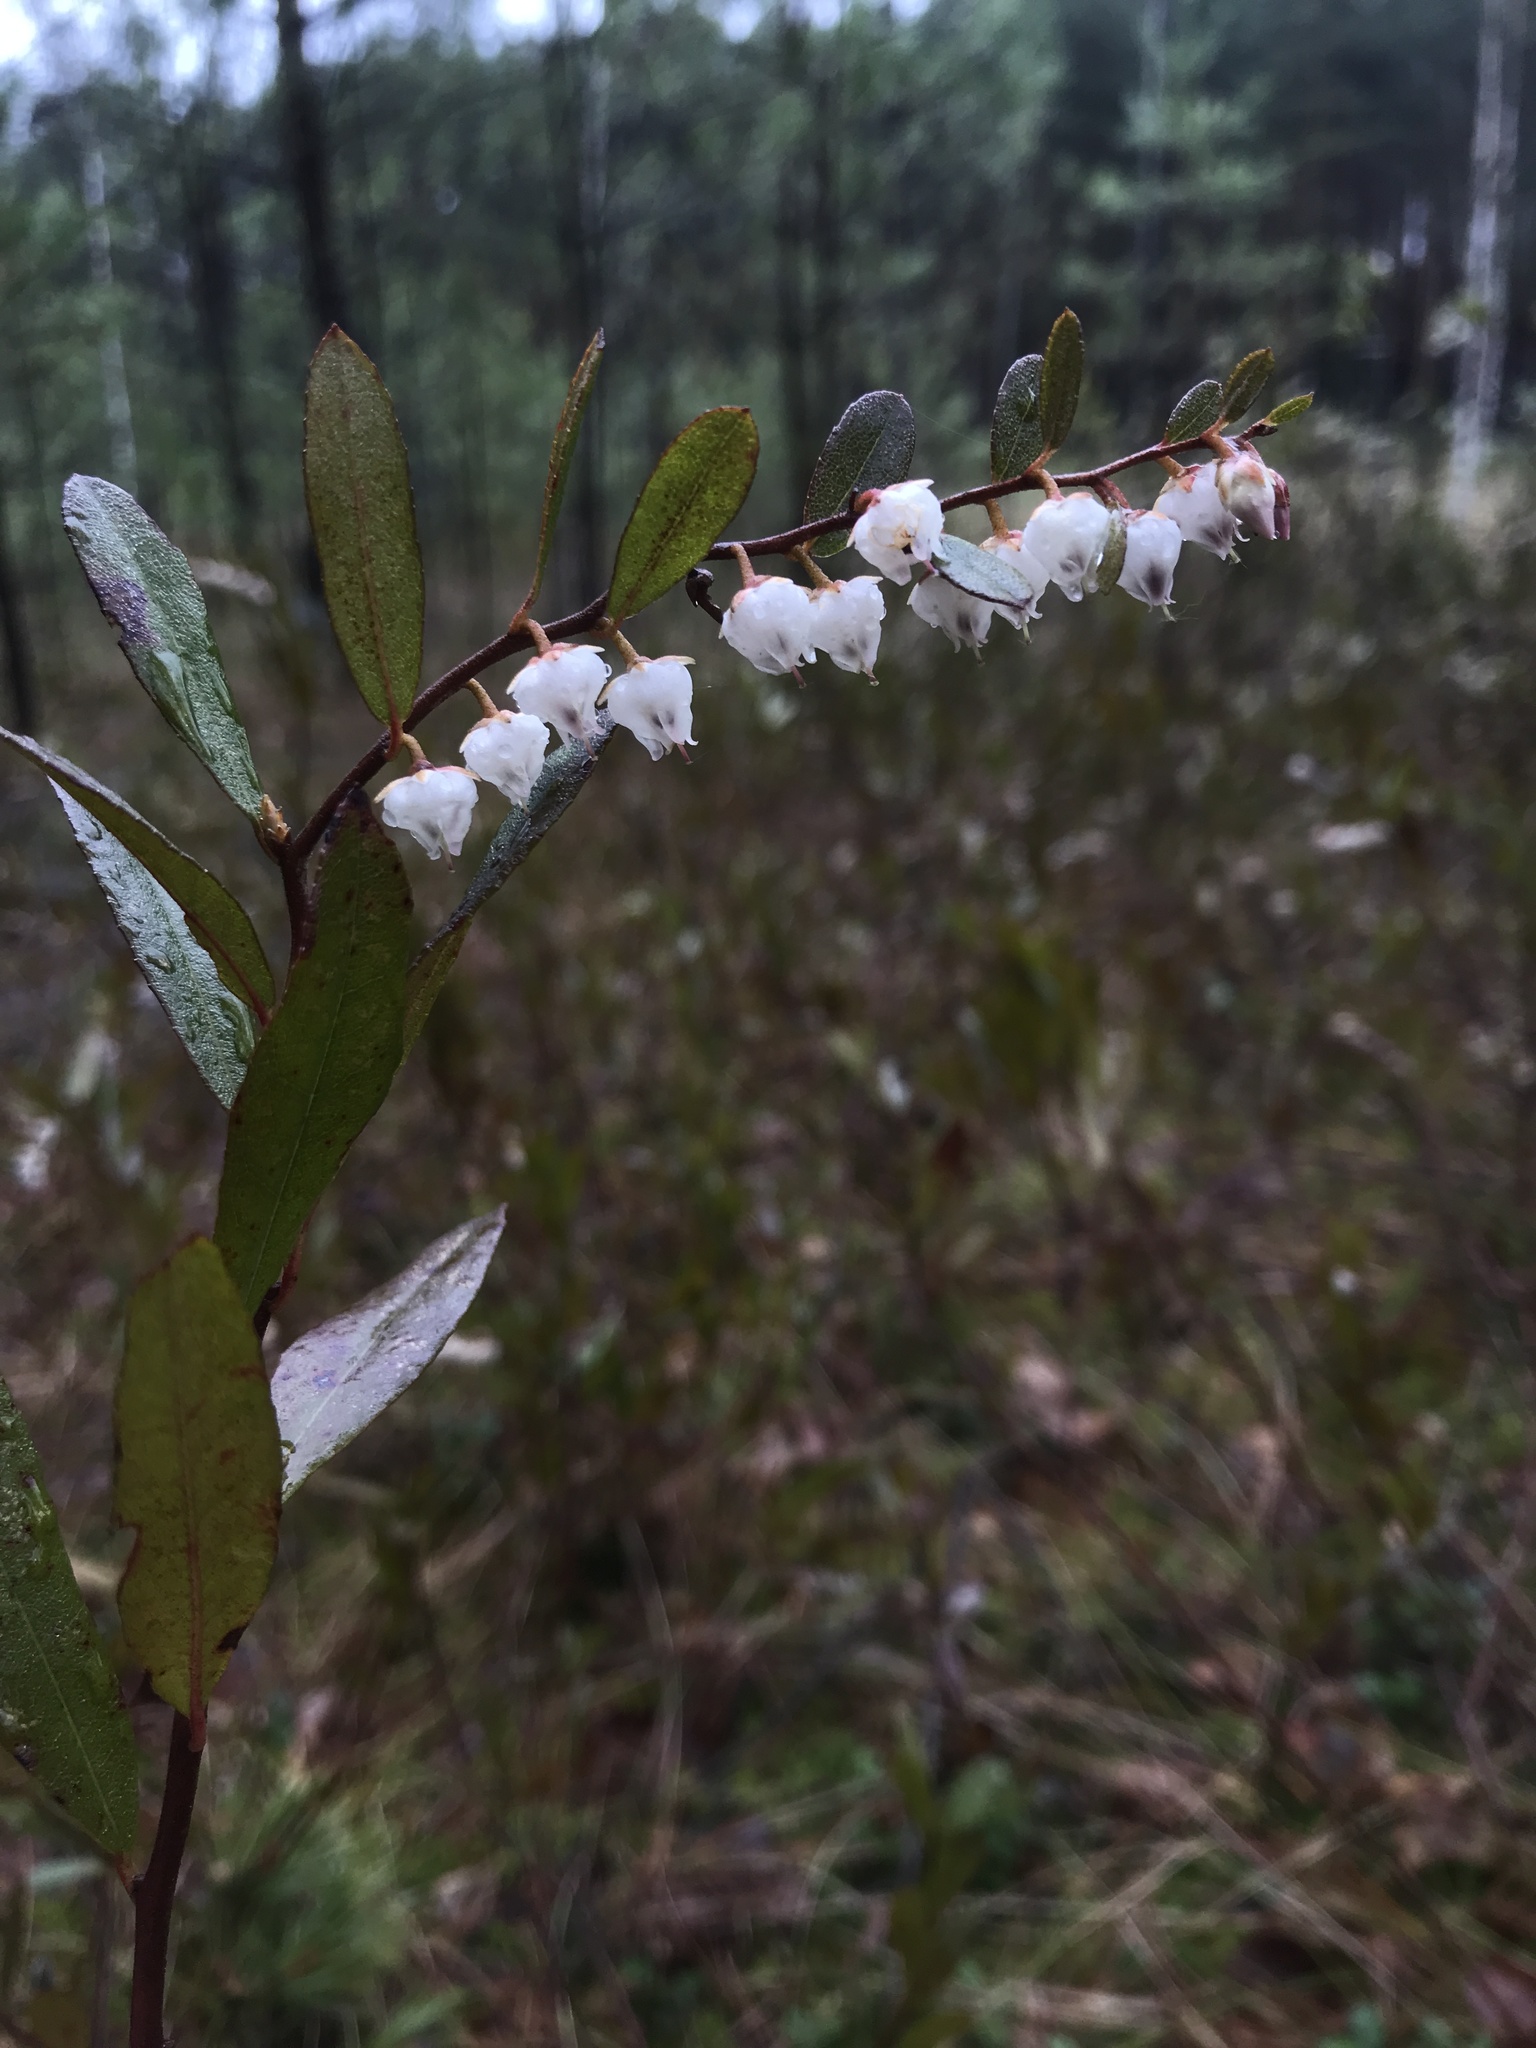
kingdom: Plantae
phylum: Tracheophyta
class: Magnoliopsida
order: Ericales
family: Ericaceae
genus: Chamaedaphne
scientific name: Chamaedaphne calyculata
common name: Leatherleaf
